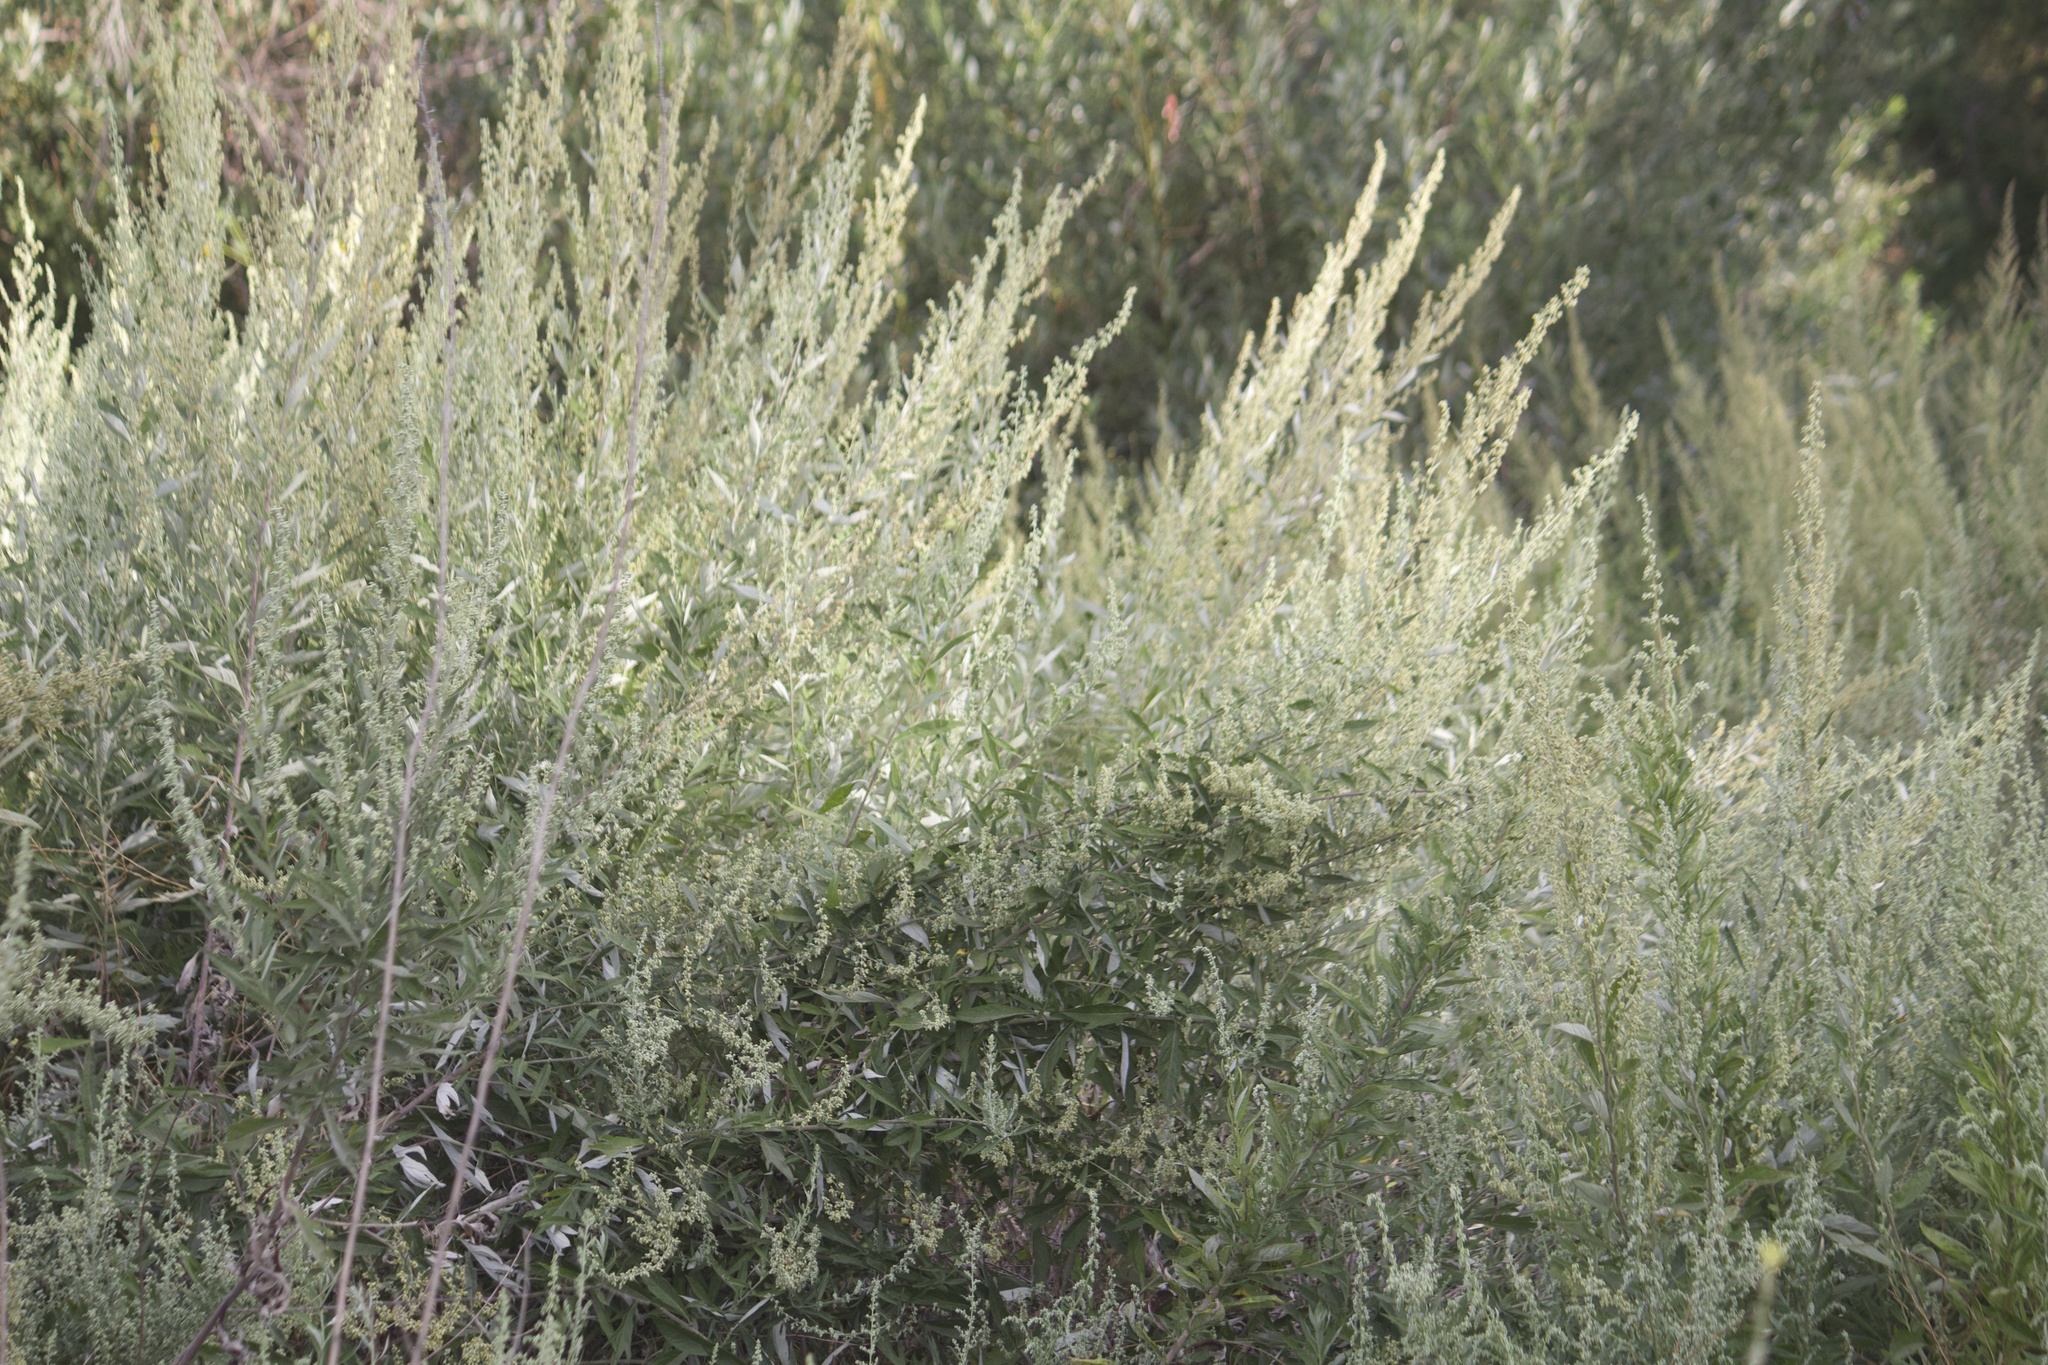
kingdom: Plantae
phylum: Tracheophyta
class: Magnoliopsida
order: Asterales
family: Asteraceae
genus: Artemisia
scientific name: Artemisia douglasiana
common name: Northwest mugwort
